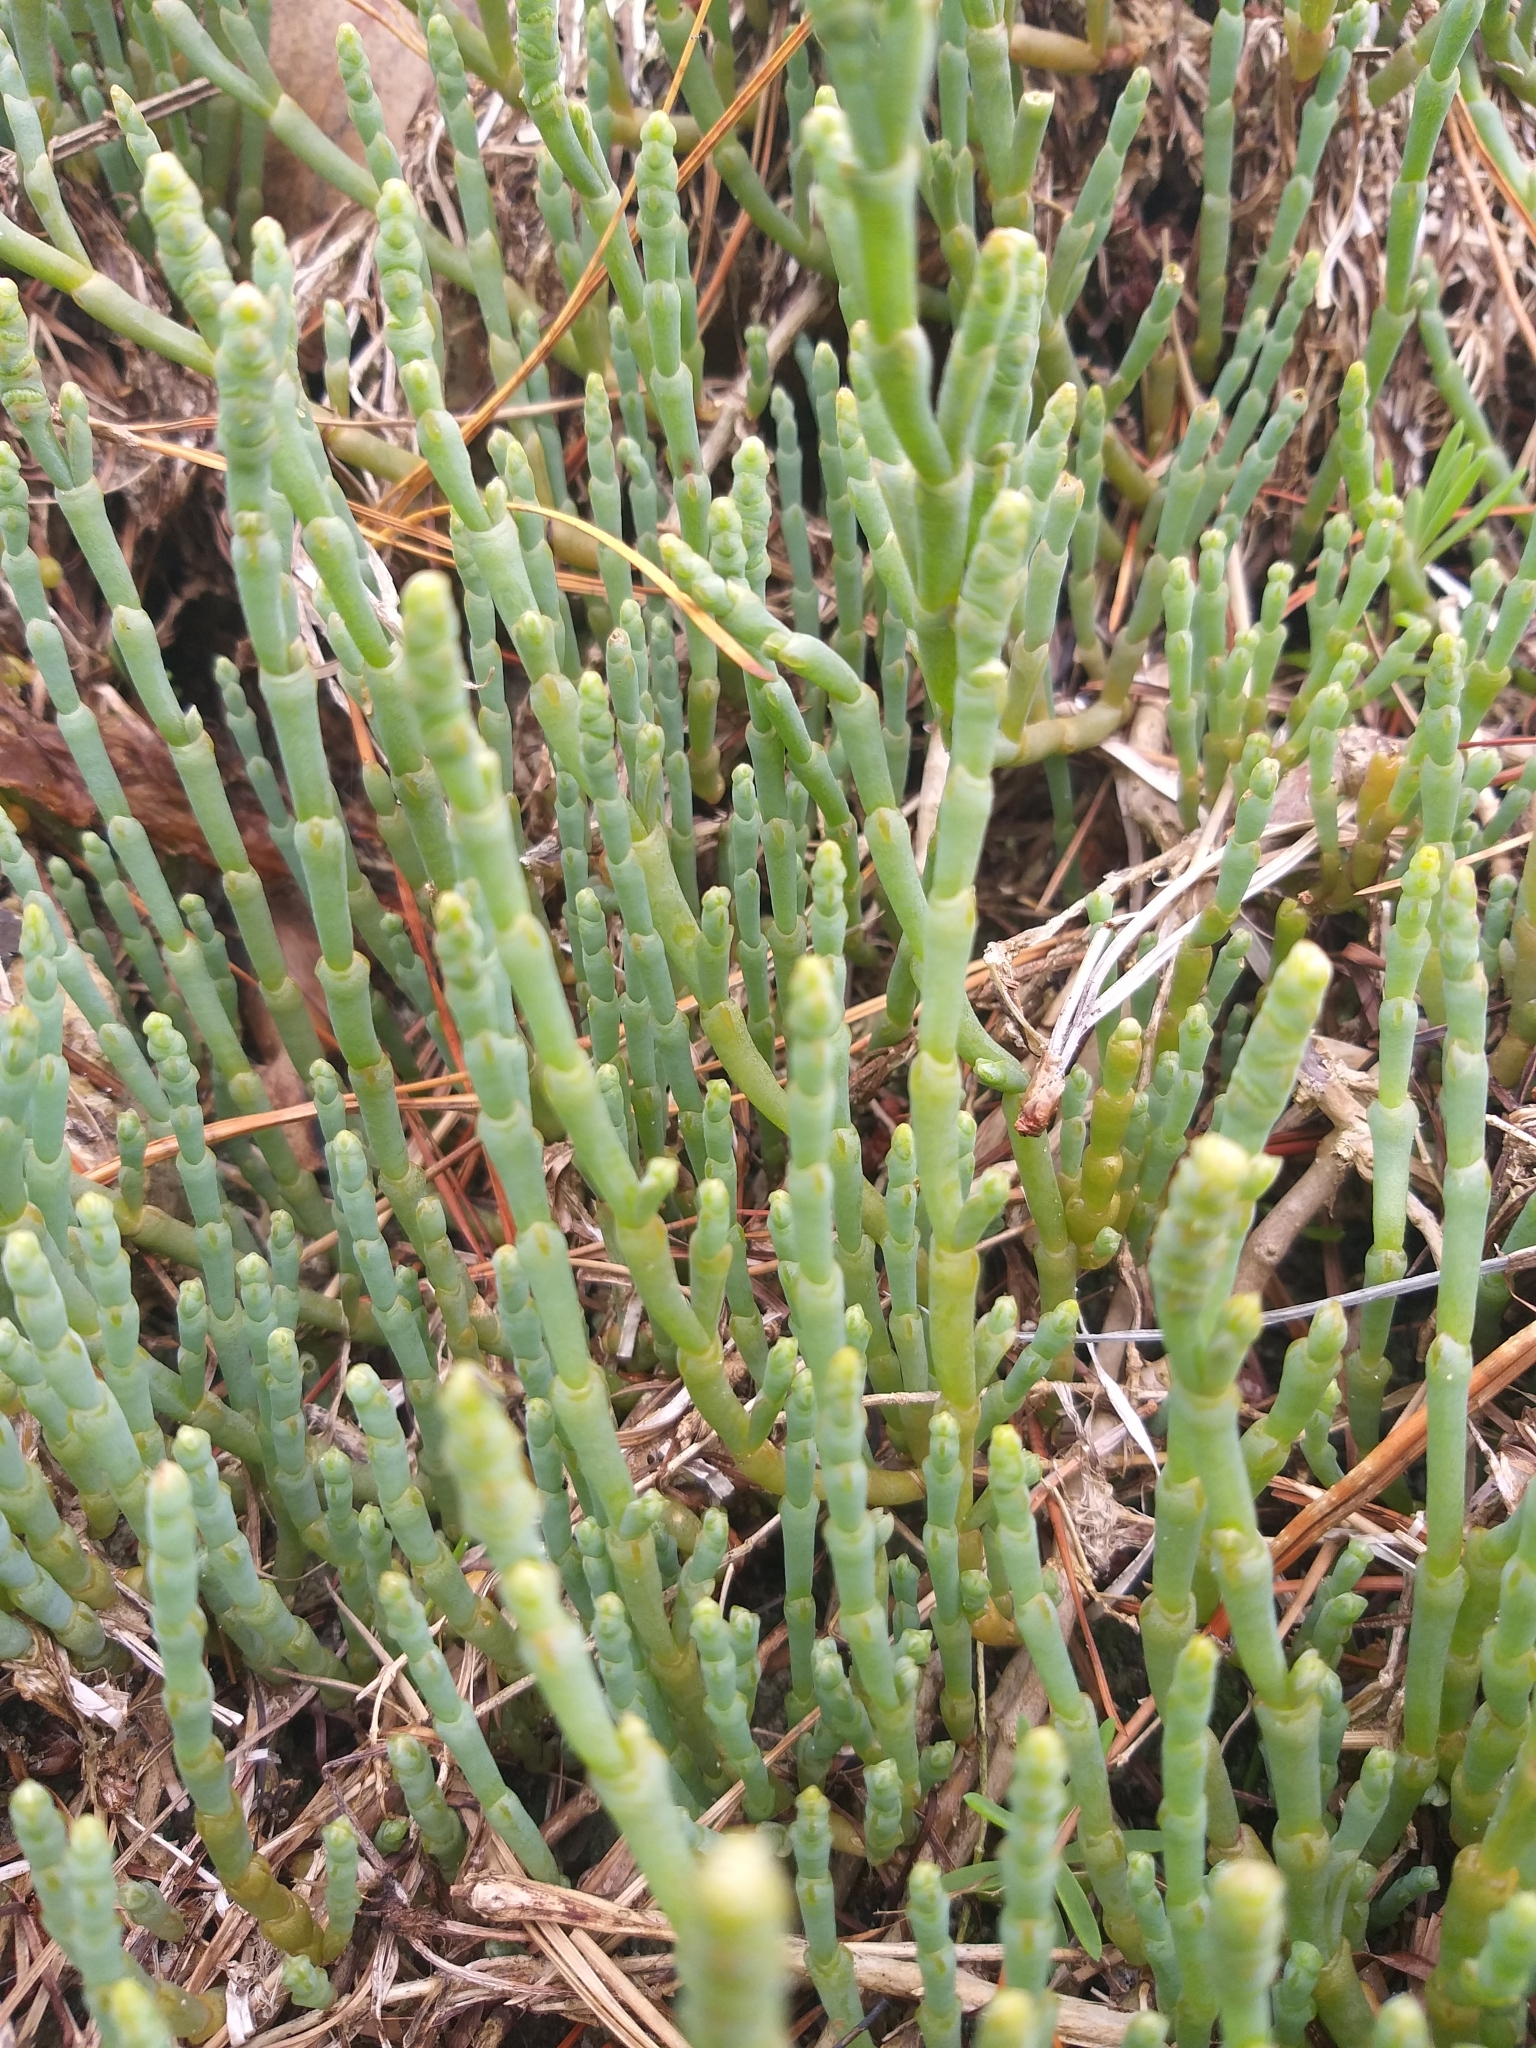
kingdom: Plantae
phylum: Tracheophyta
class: Magnoliopsida
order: Caryophyllales
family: Amaranthaceae
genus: Salicornia
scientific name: Salicornia quinqueflora
